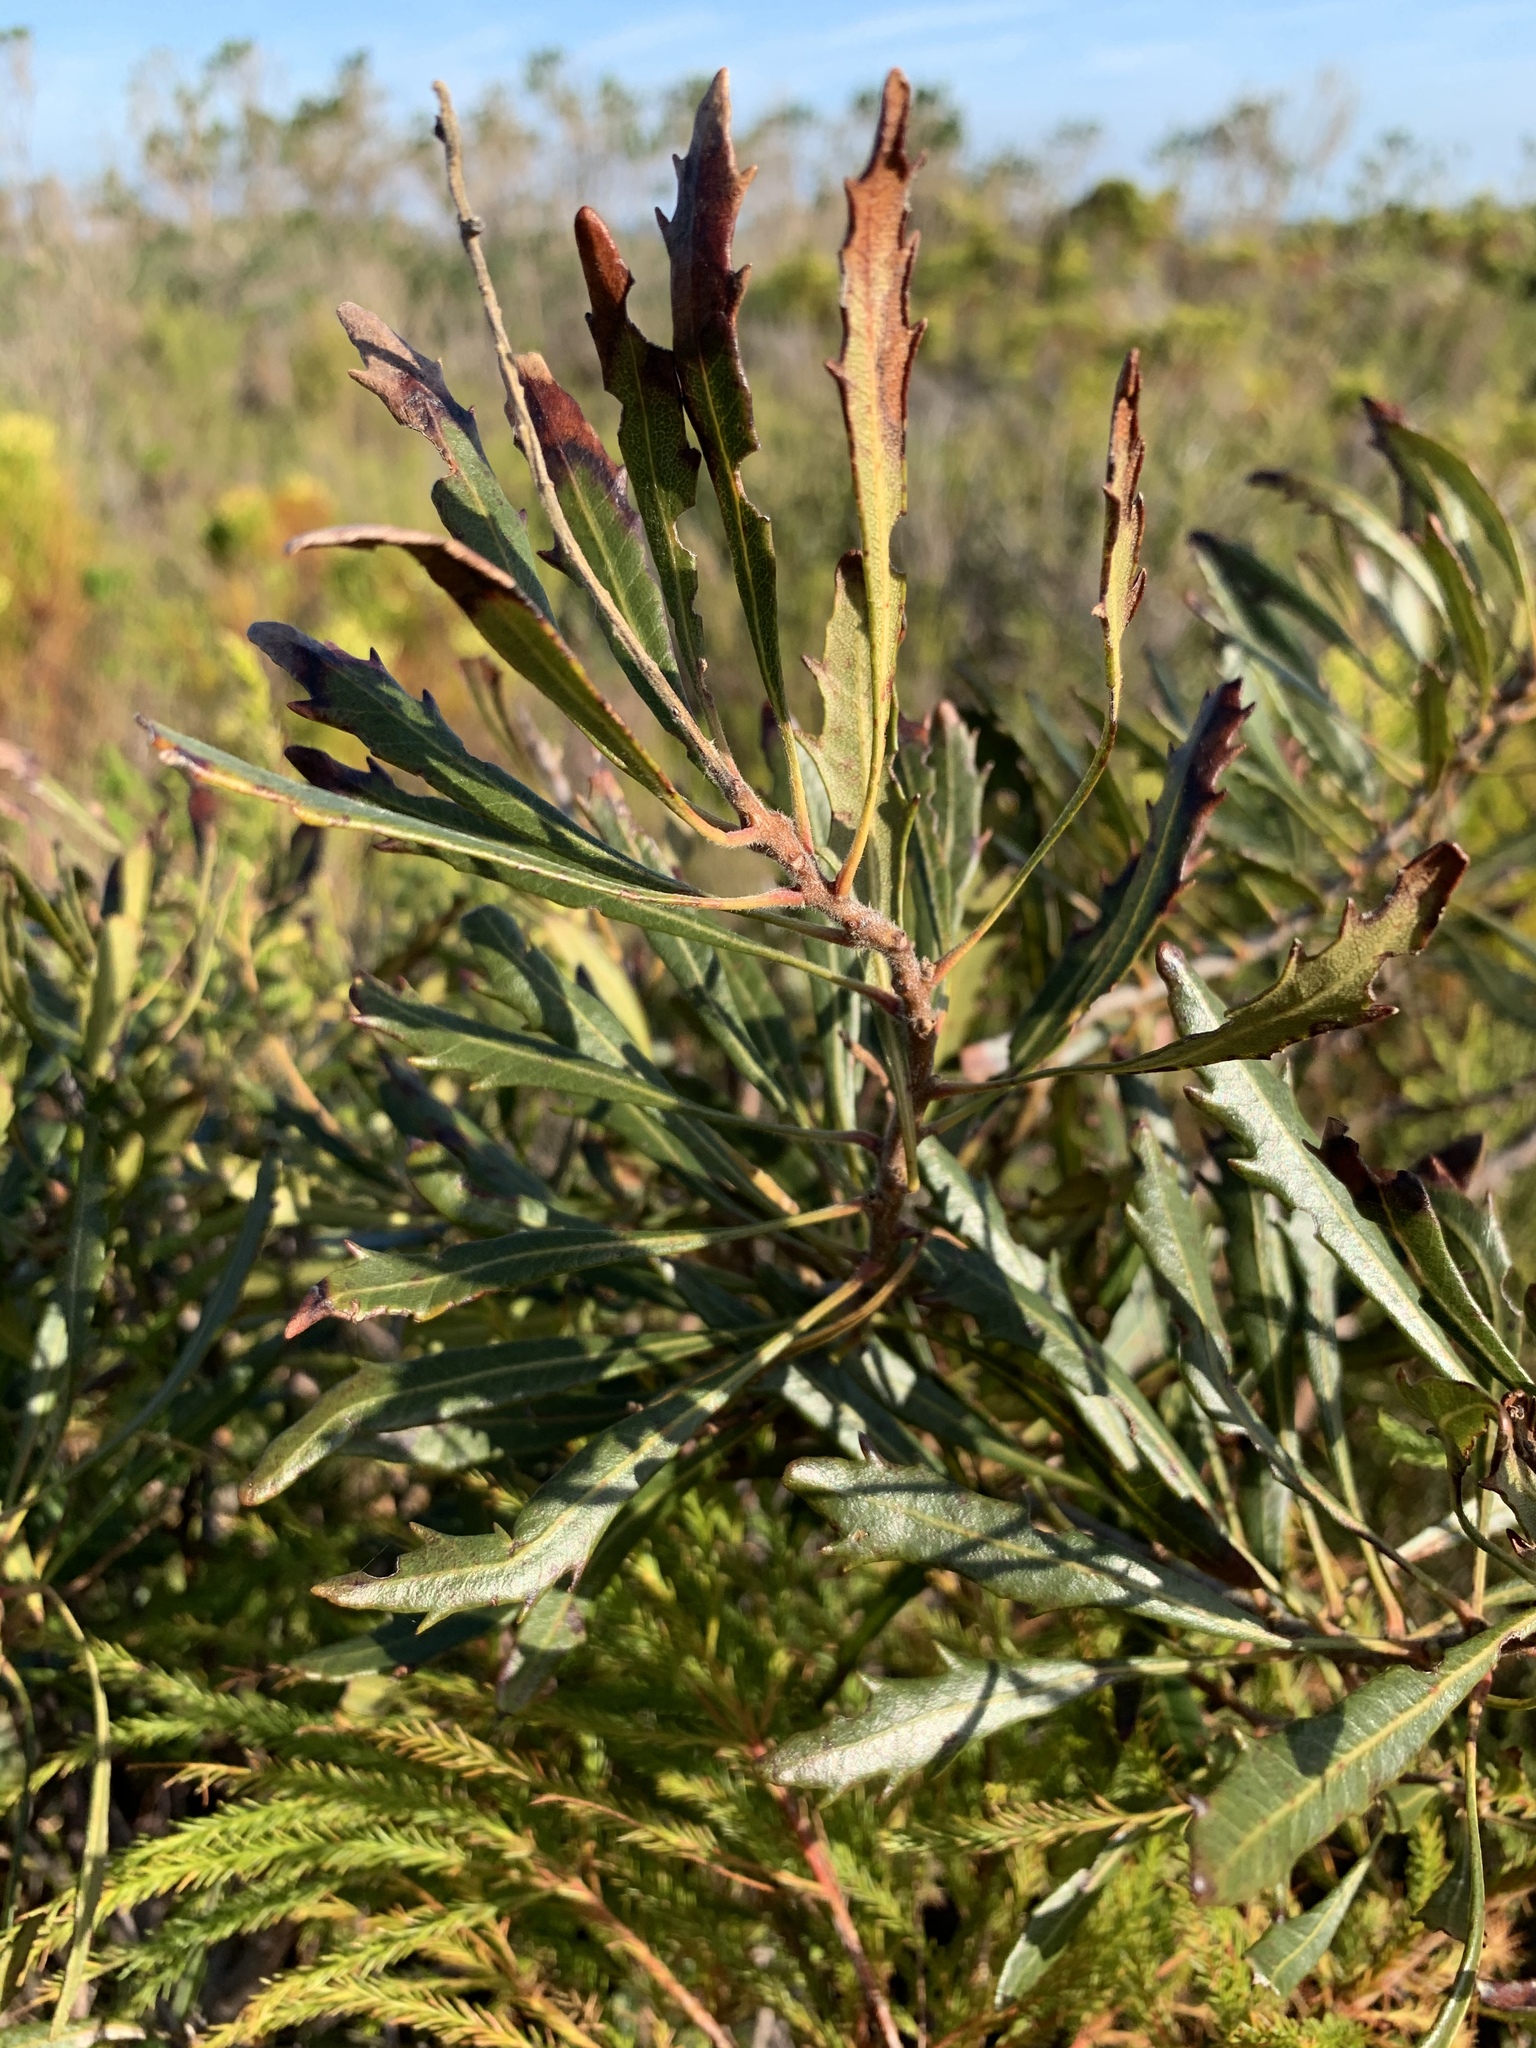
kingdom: Plantae
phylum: Tracheophyta
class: Magnoliopsida
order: Fagales
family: Myricaceae
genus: Morella
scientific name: Morella serrata
